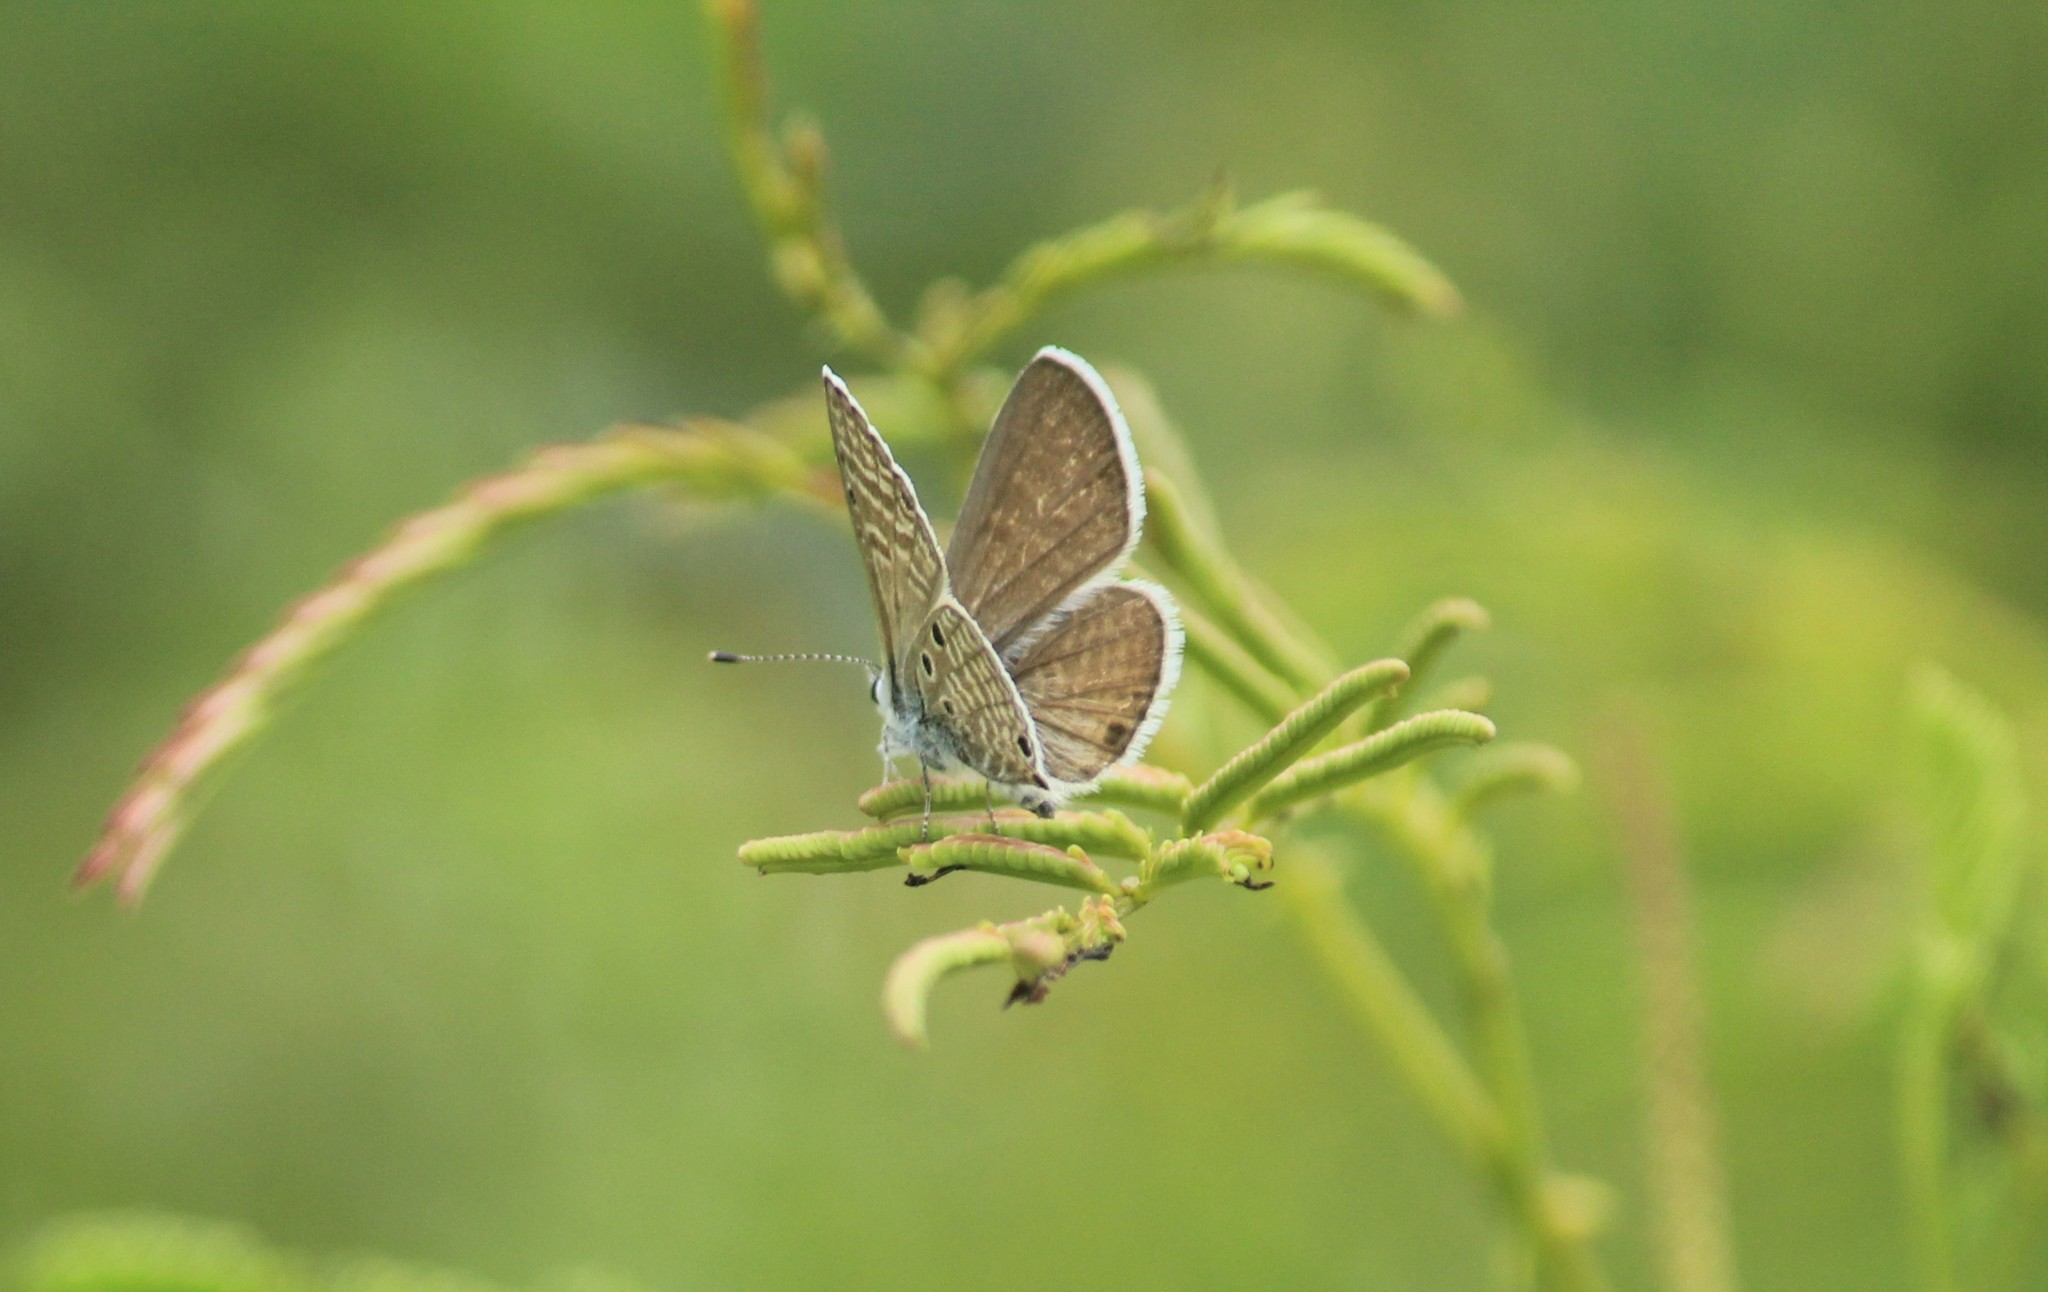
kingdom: Animalia
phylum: Arthropoda
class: Insecta
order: Lepidoptera
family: Lycaenidae
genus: Azanus
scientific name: Azanus ubaldus
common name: Desert babul blue
